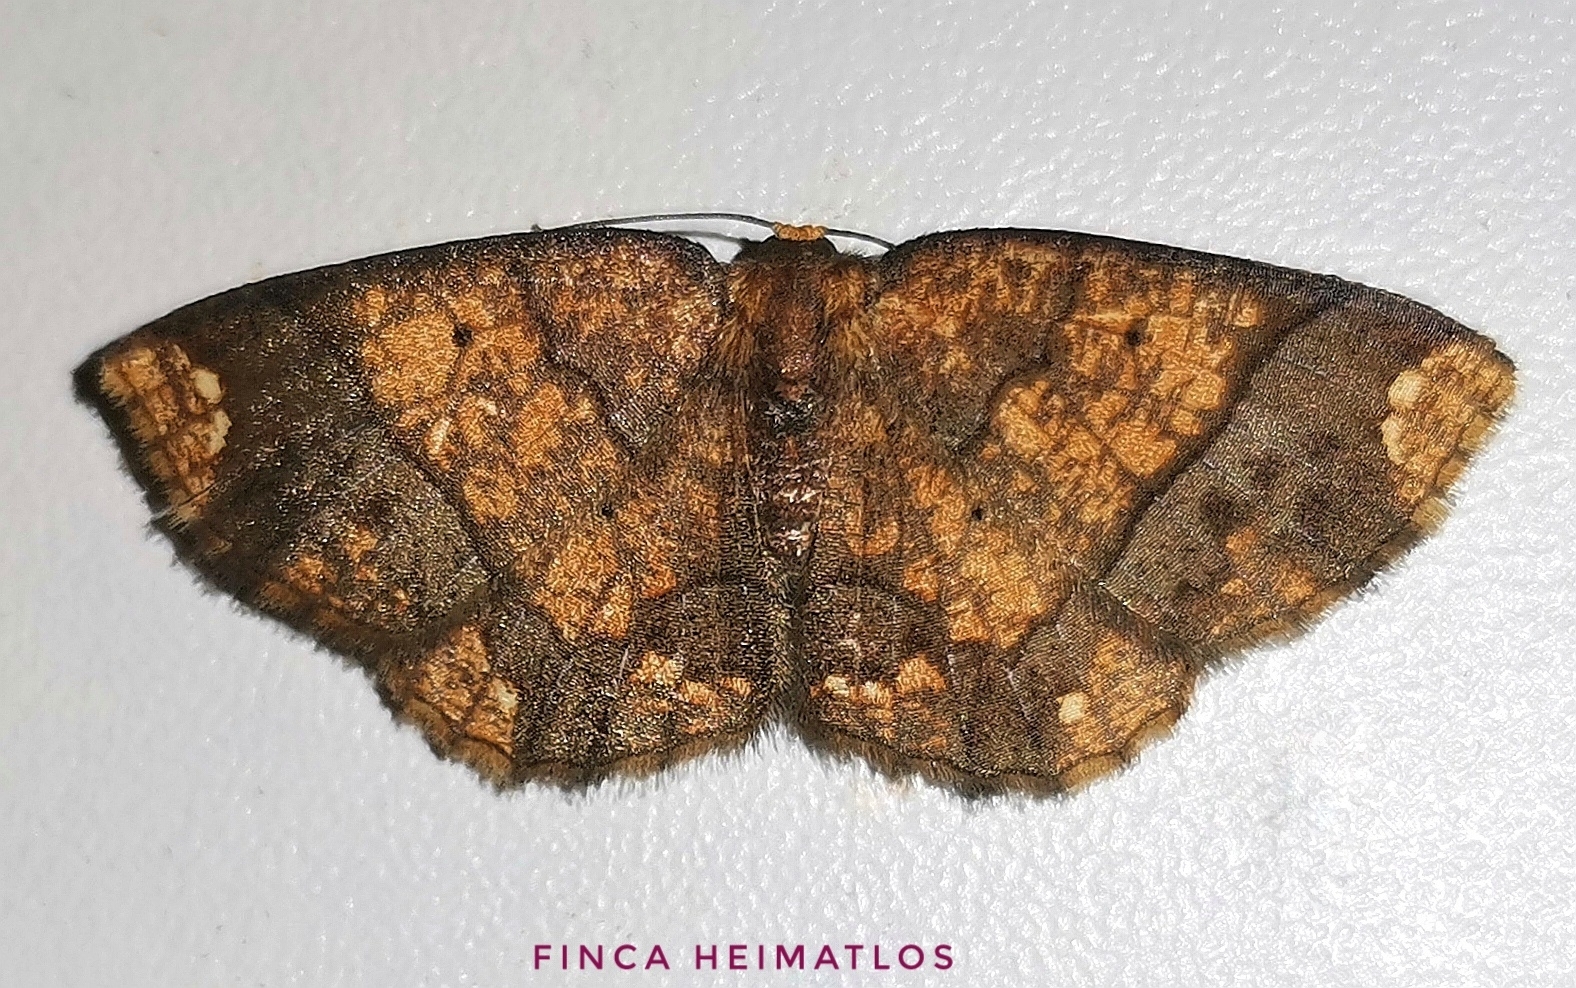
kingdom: Animalia
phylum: Arthropoda
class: Insecta
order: Lepidoptera
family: Geometridae
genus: Melinodes
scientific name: Melinodes cuprina
